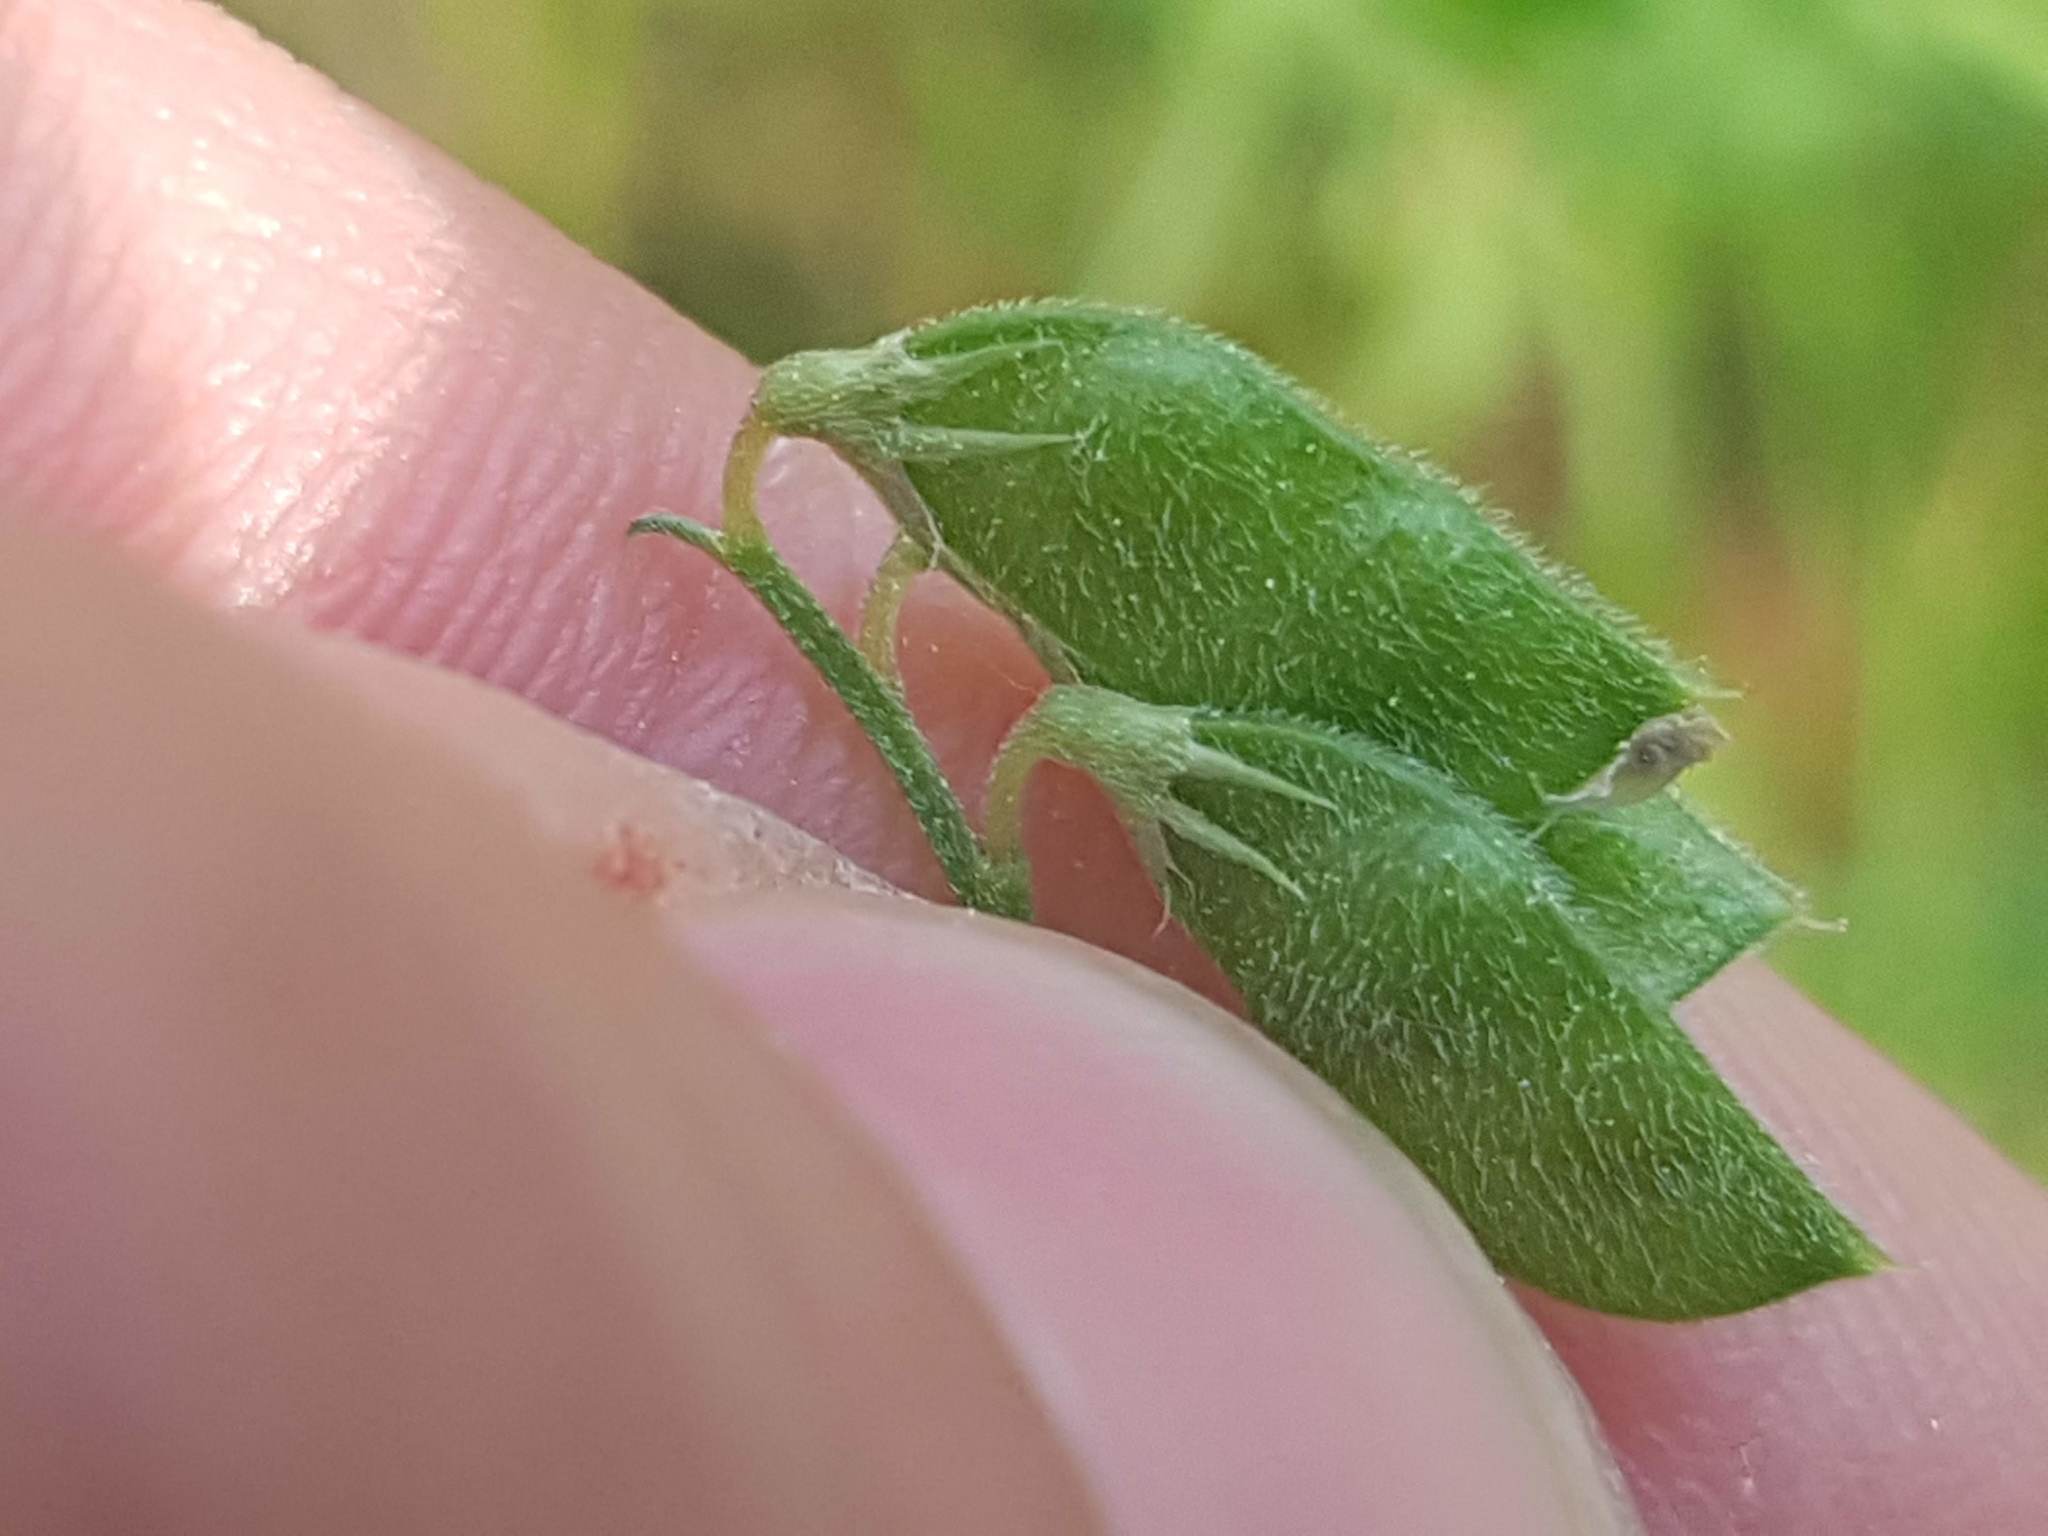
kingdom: Plantae
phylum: Tracheophyta
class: Magnoliopsida
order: Fabales
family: Fabaceae
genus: Vicia
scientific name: Vicia hirsuta
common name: Tiny vetch
